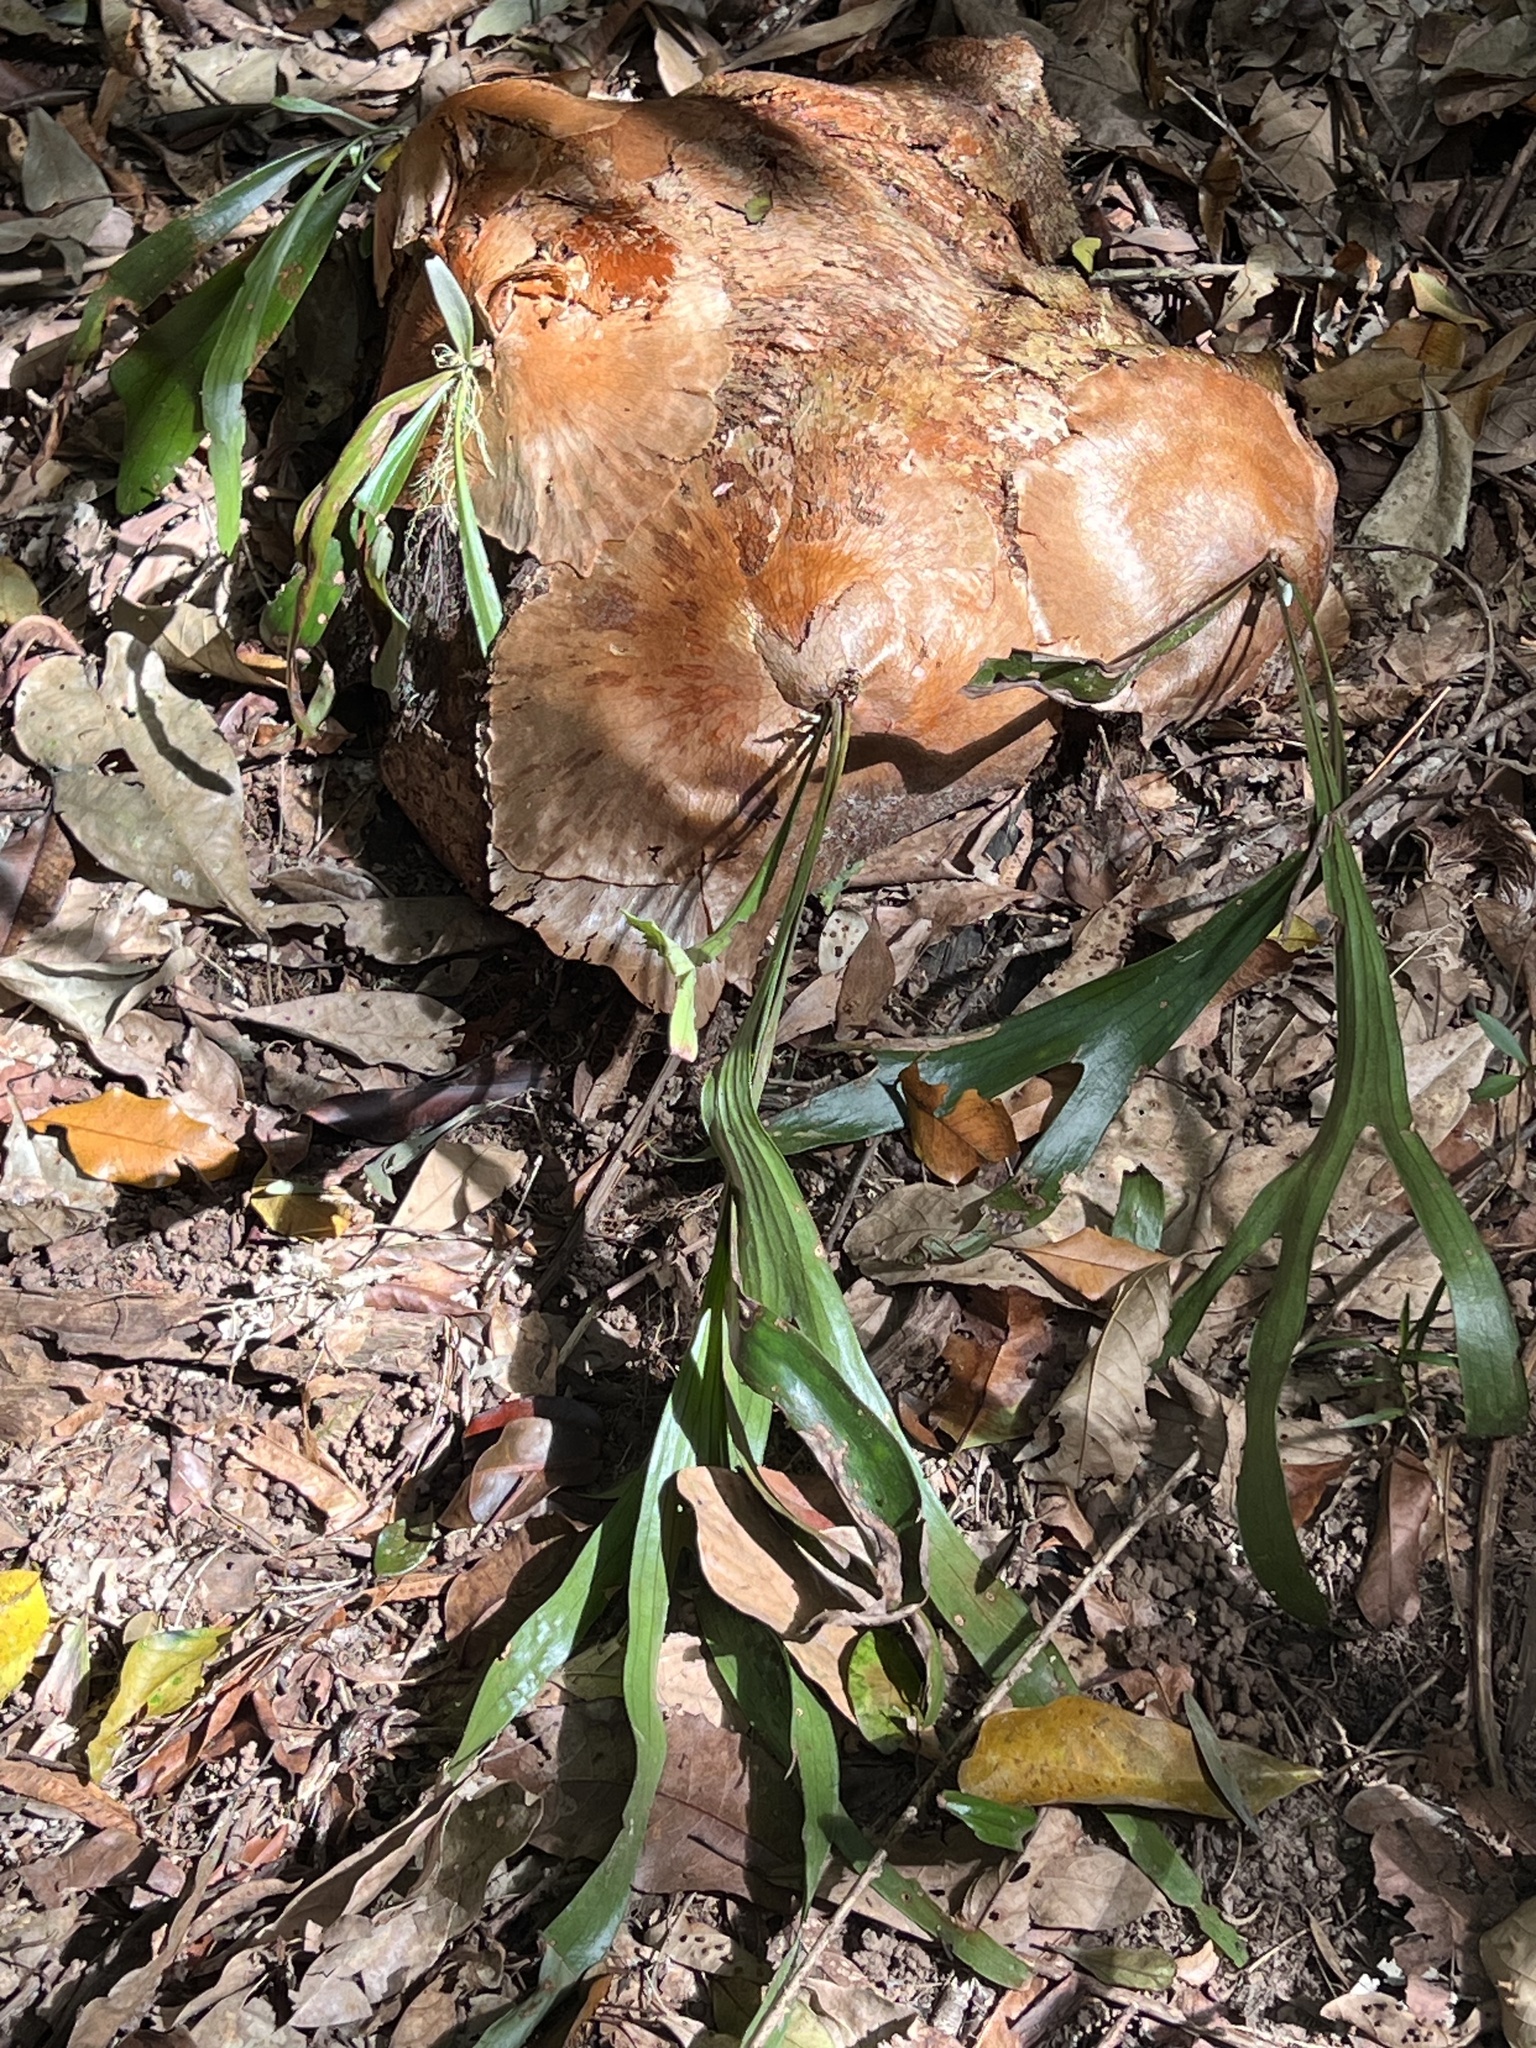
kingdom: Plantae
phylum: Tracheophyta
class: Polypodiopsida
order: Polypodiales
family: Polypodiaceae
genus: Platycerium
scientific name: Platycerium hillii
